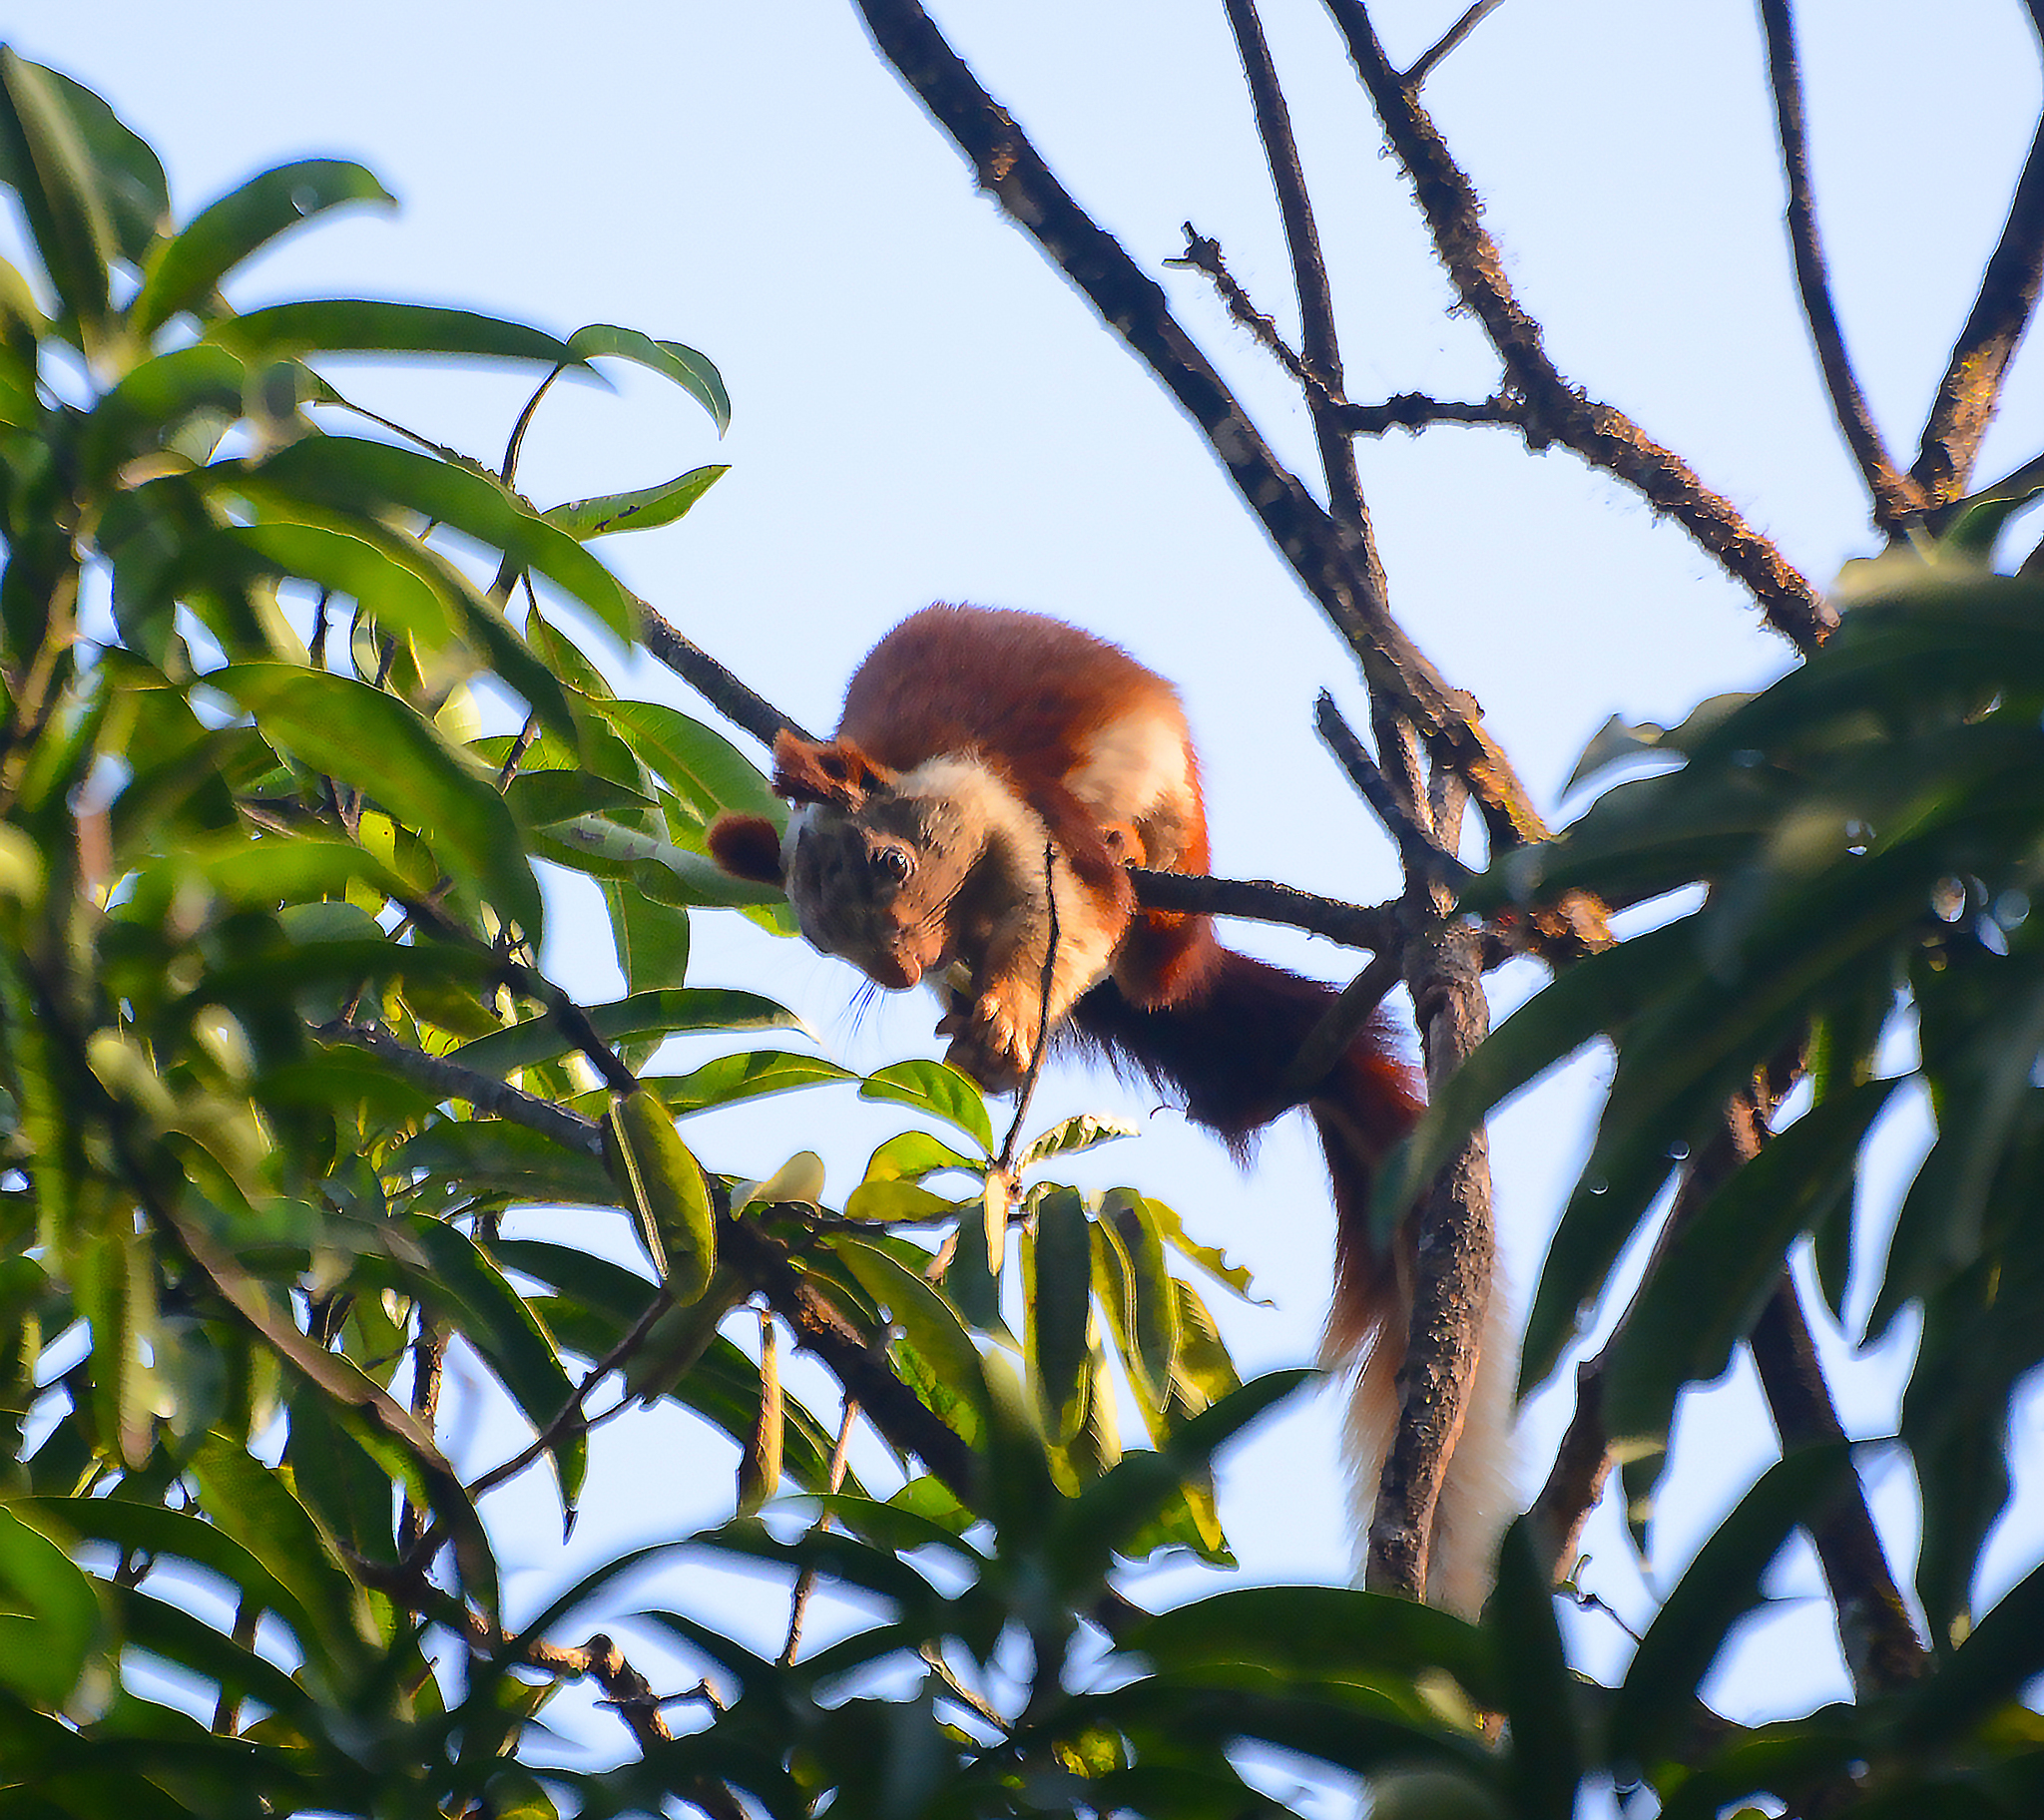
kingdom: Animalia
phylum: Chordata
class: Mammalia
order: Rodentia
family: Sciuridae
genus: Ratufa
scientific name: Ratufa indica
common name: Indian giant squirrel
